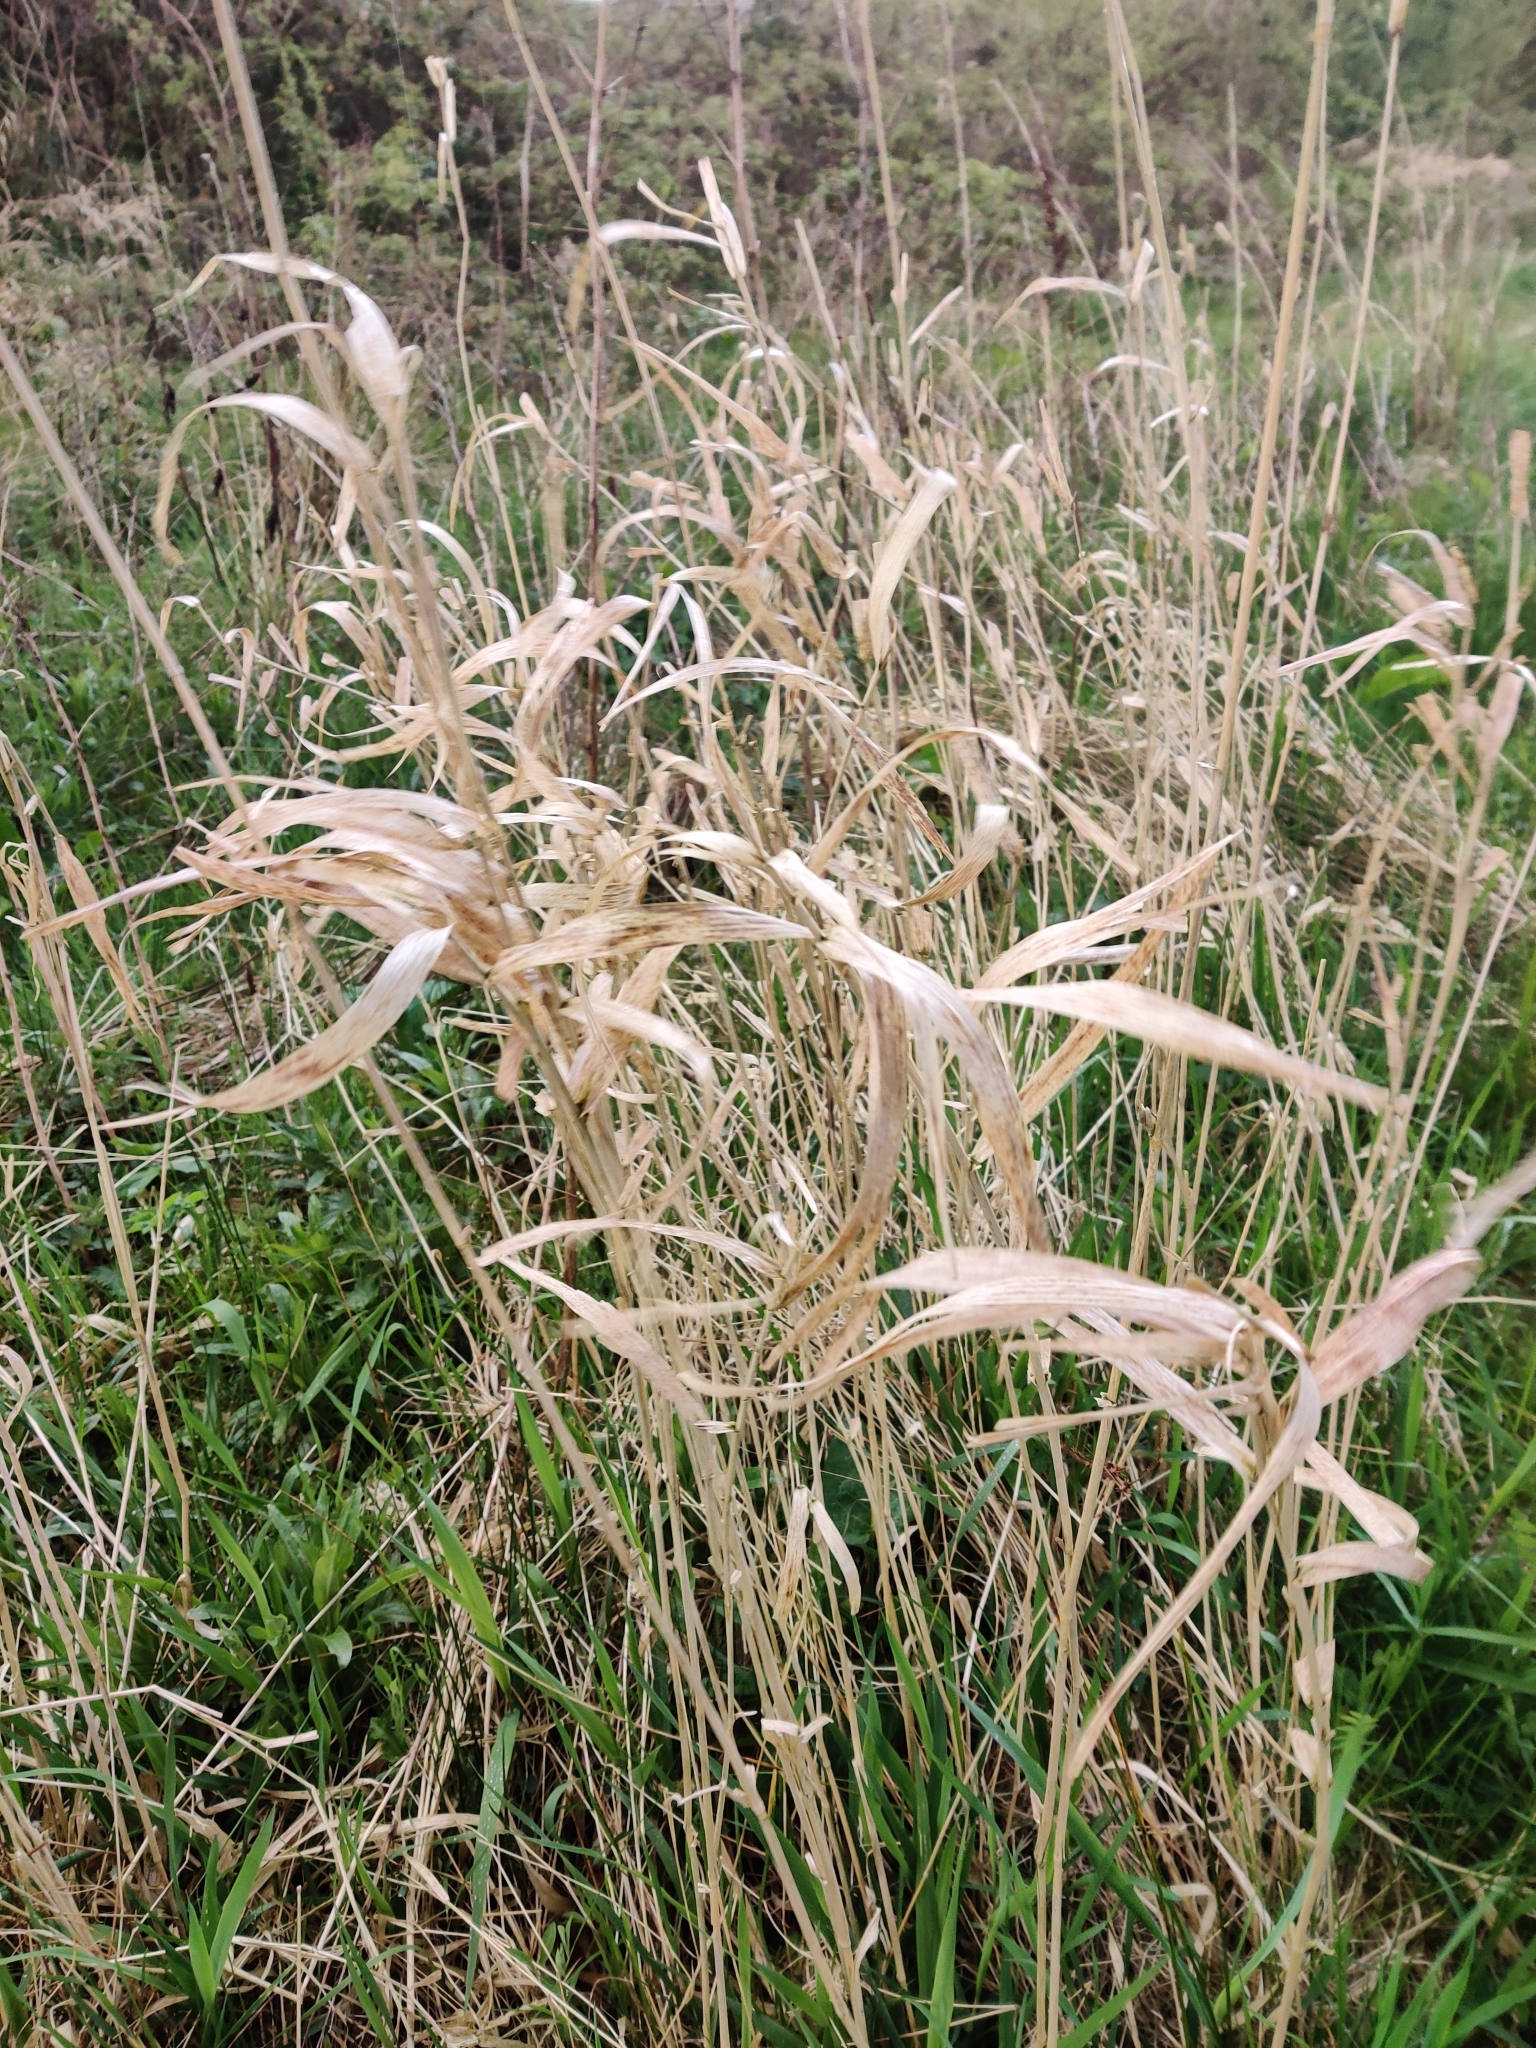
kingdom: Plantae
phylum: Tracheophyta
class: Liliopsida
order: Poales
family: Poaceae
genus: Phragmites
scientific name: Phragmites australis
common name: Common reed
